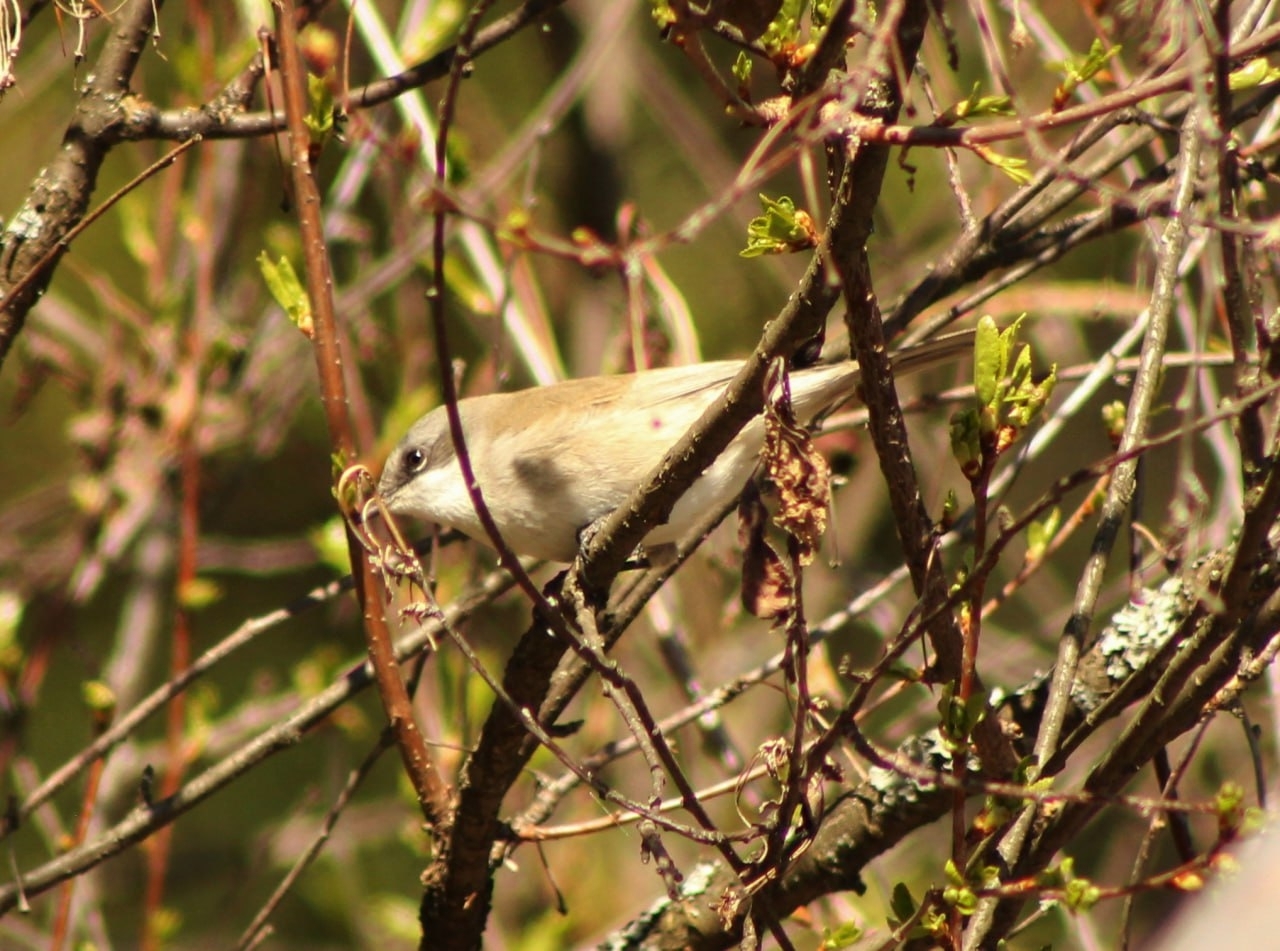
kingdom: Animalia
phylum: Chordata
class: Aves
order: Passeriformes
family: Sylviidae
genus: Sylvia
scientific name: Sylvia curruca
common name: Lesser whitethroat
